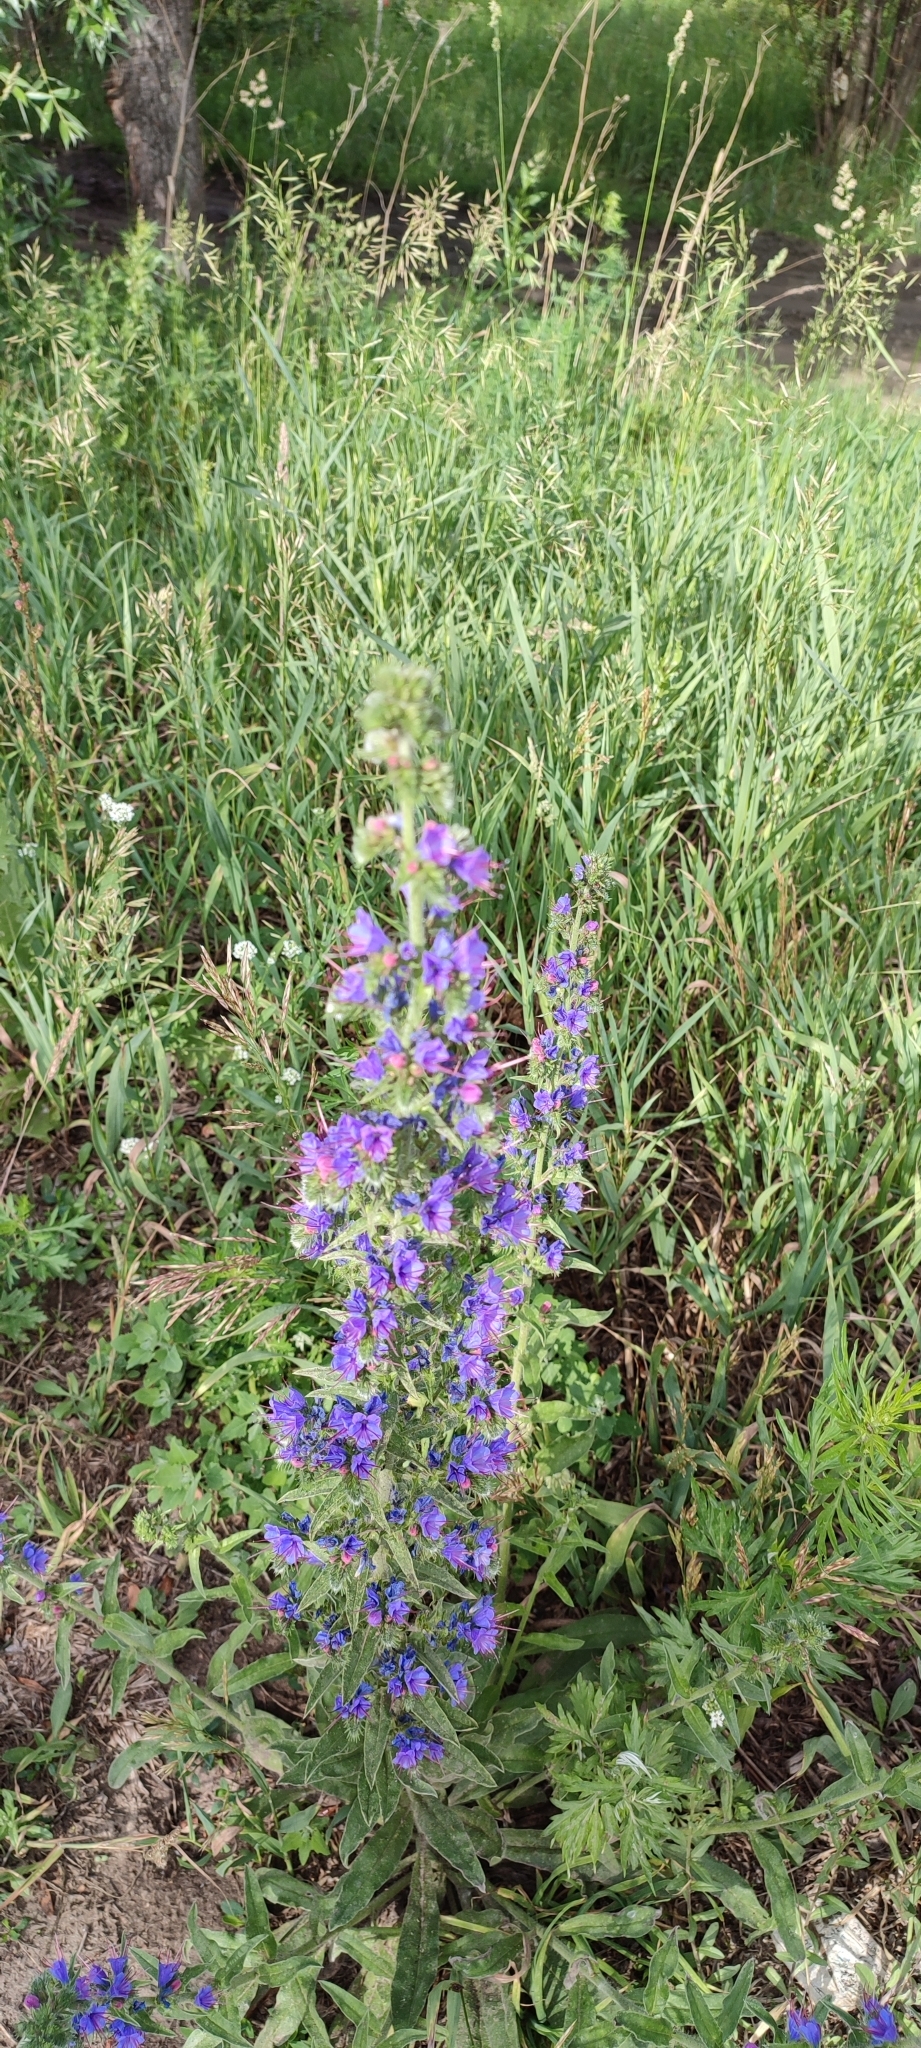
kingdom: Plantae
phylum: Tracheophyta
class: Magnoliopsida
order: Boraginales
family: Boraginaceae
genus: Echium
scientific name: Echium vulgare
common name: Common viper's bugloss
